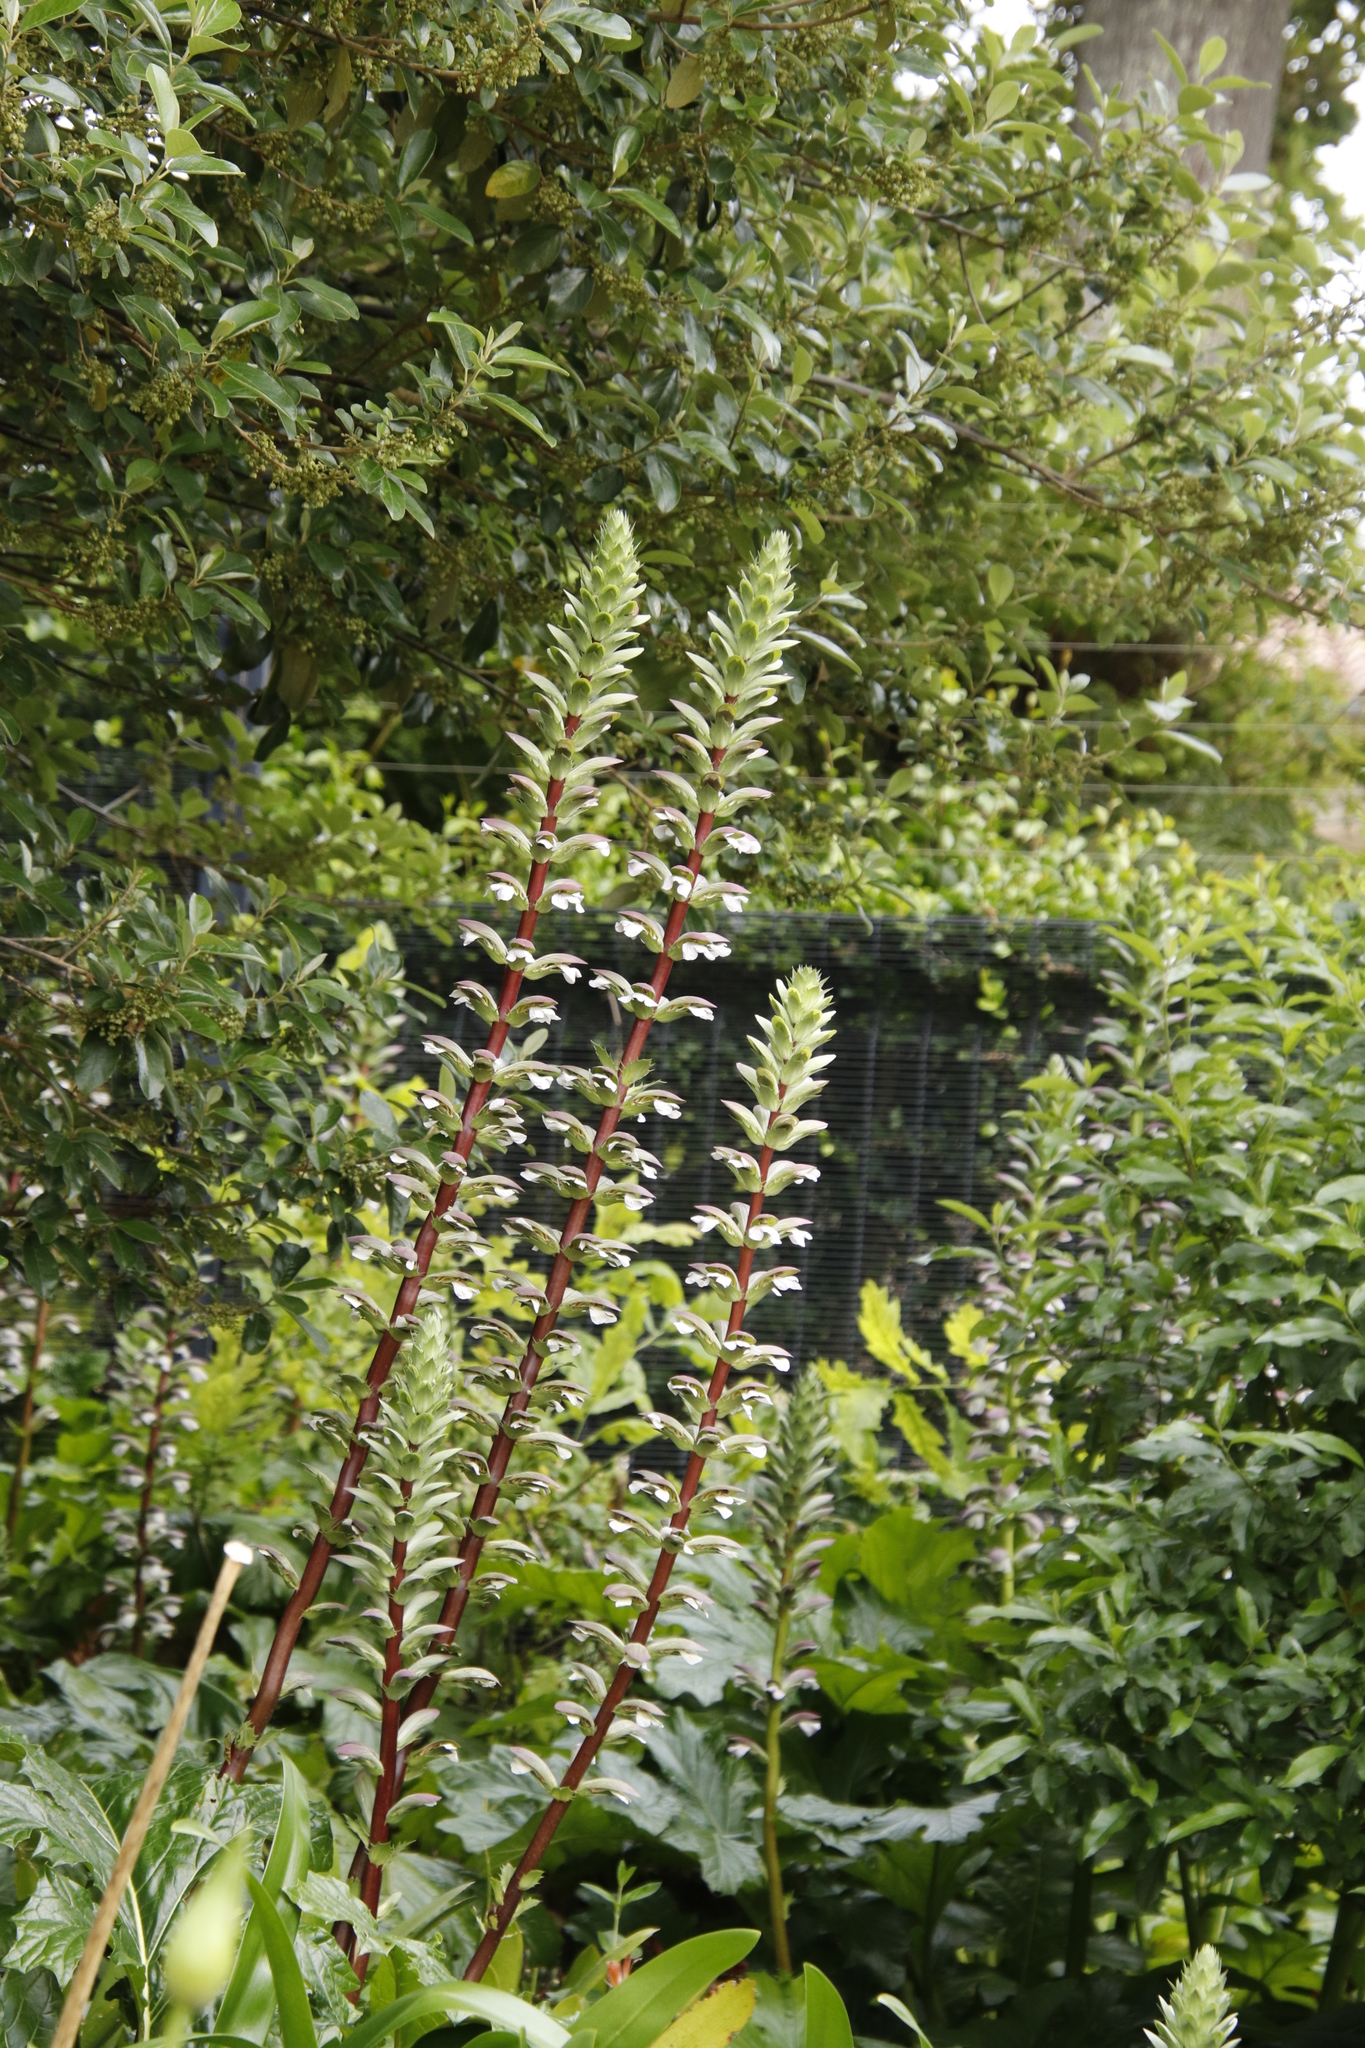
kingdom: Plantae
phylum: Tracheophyta
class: Magnoliopsida
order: Lamiales
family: Acanthaceae
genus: Acanthus
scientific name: Acanthus mollis
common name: Bear's-breech
